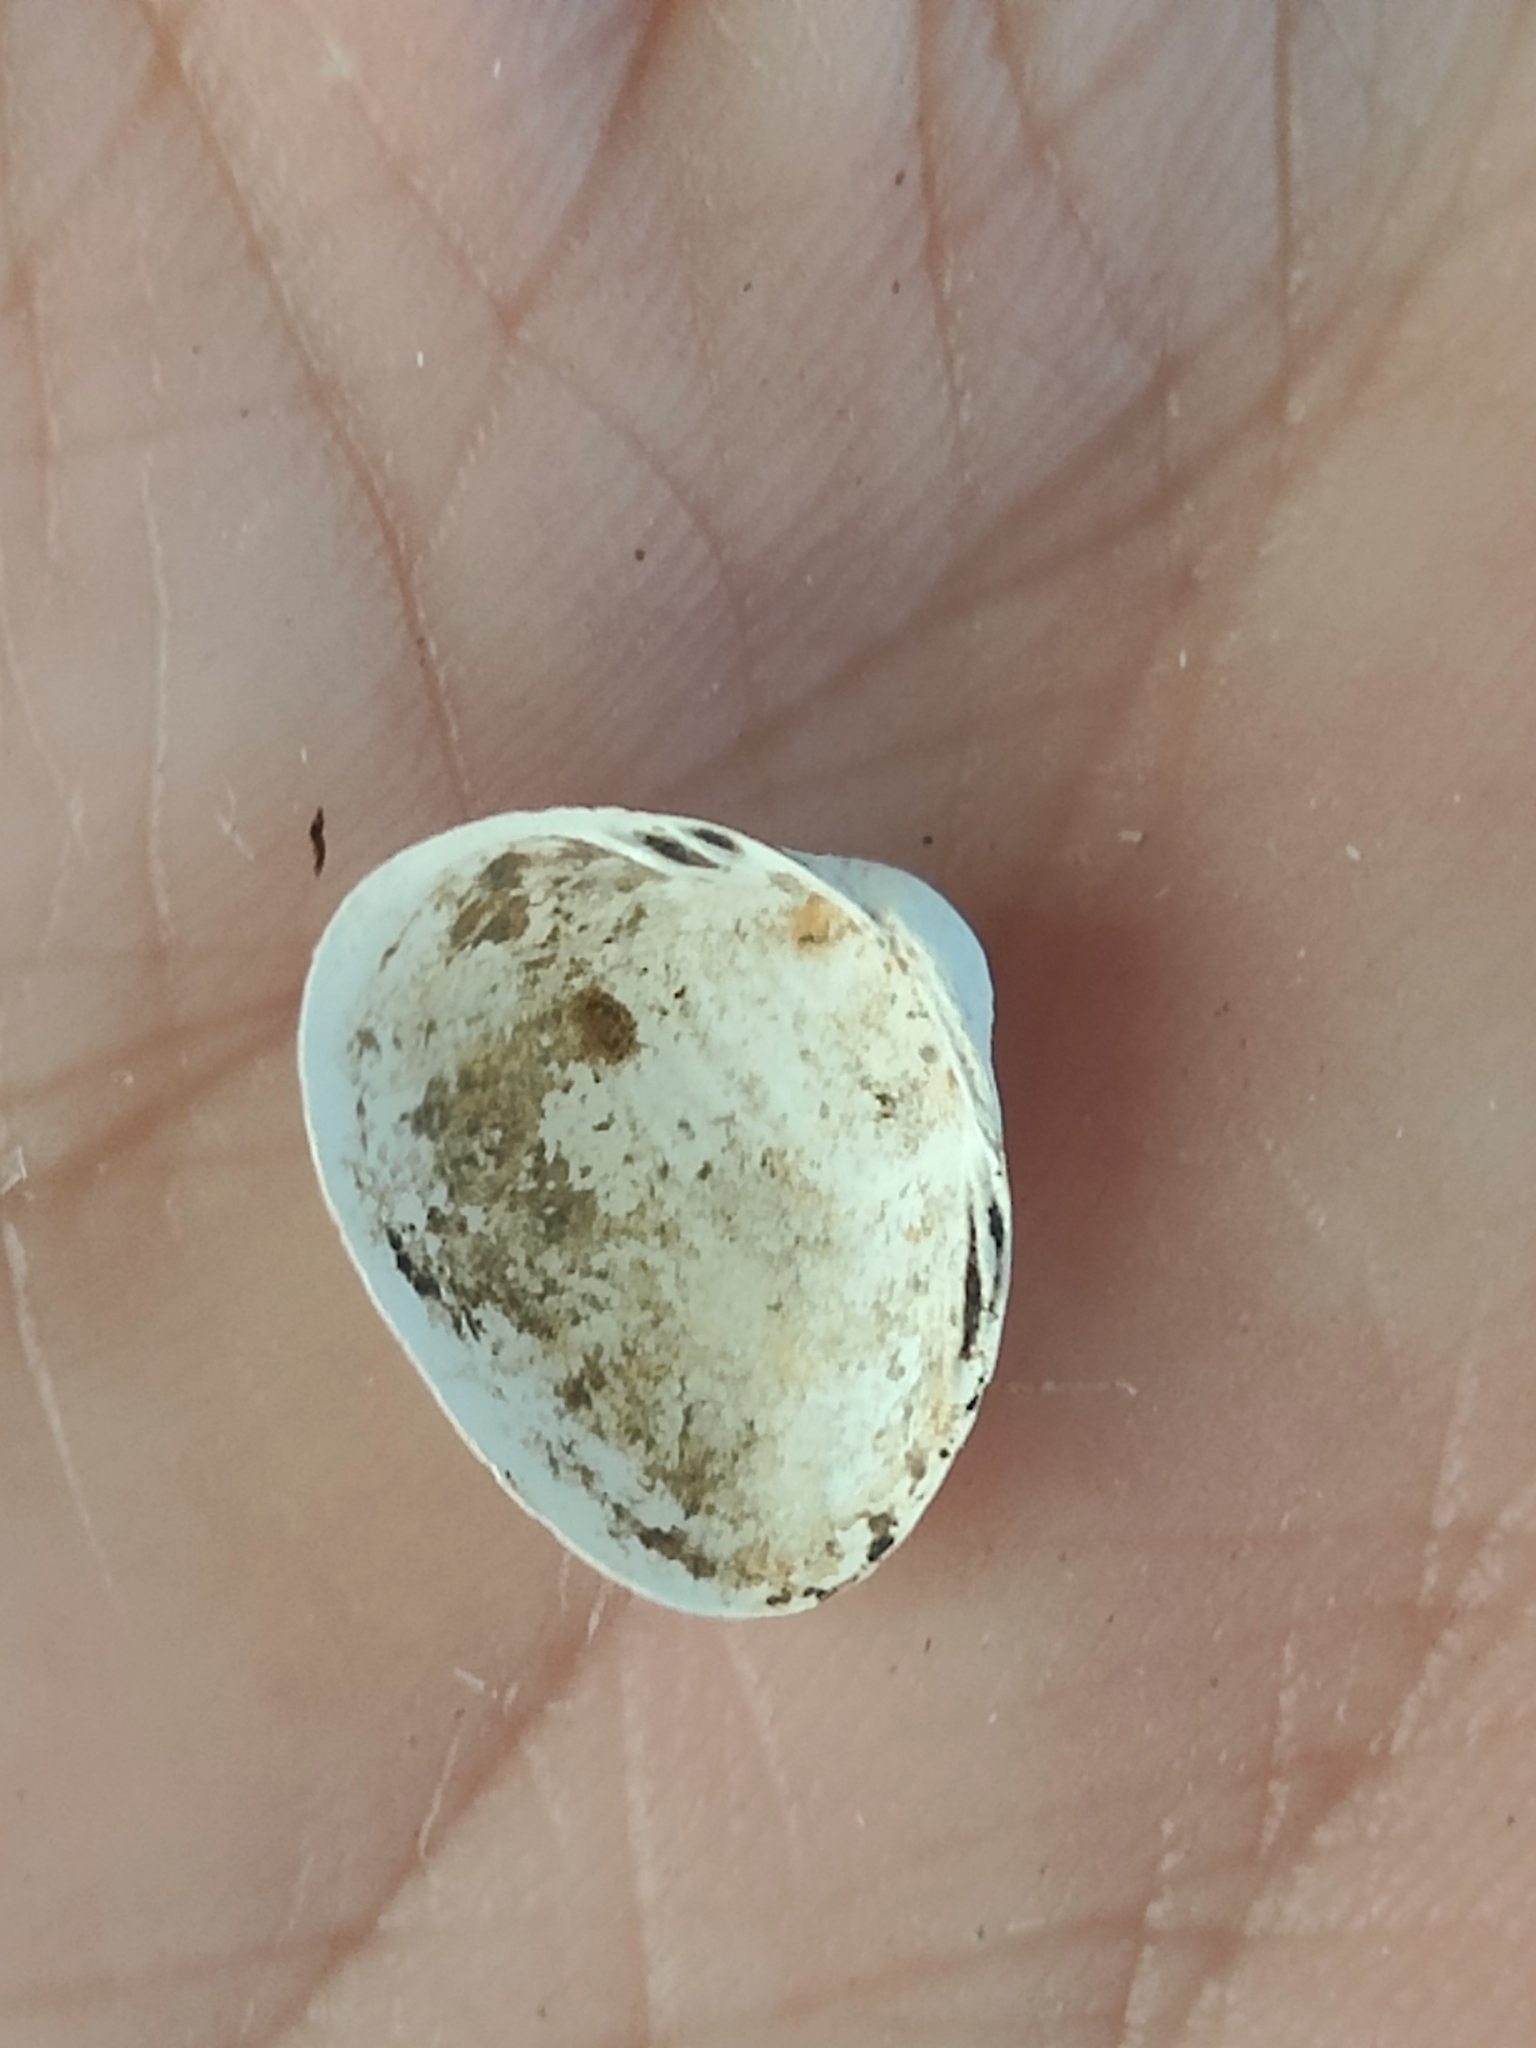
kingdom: Animalia
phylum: Mollusca
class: Bivalvia
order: Sphaeriida
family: Sphaeriidae
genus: Sphaerium
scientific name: Sphaerium striatinum
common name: Striated fingernailclam
